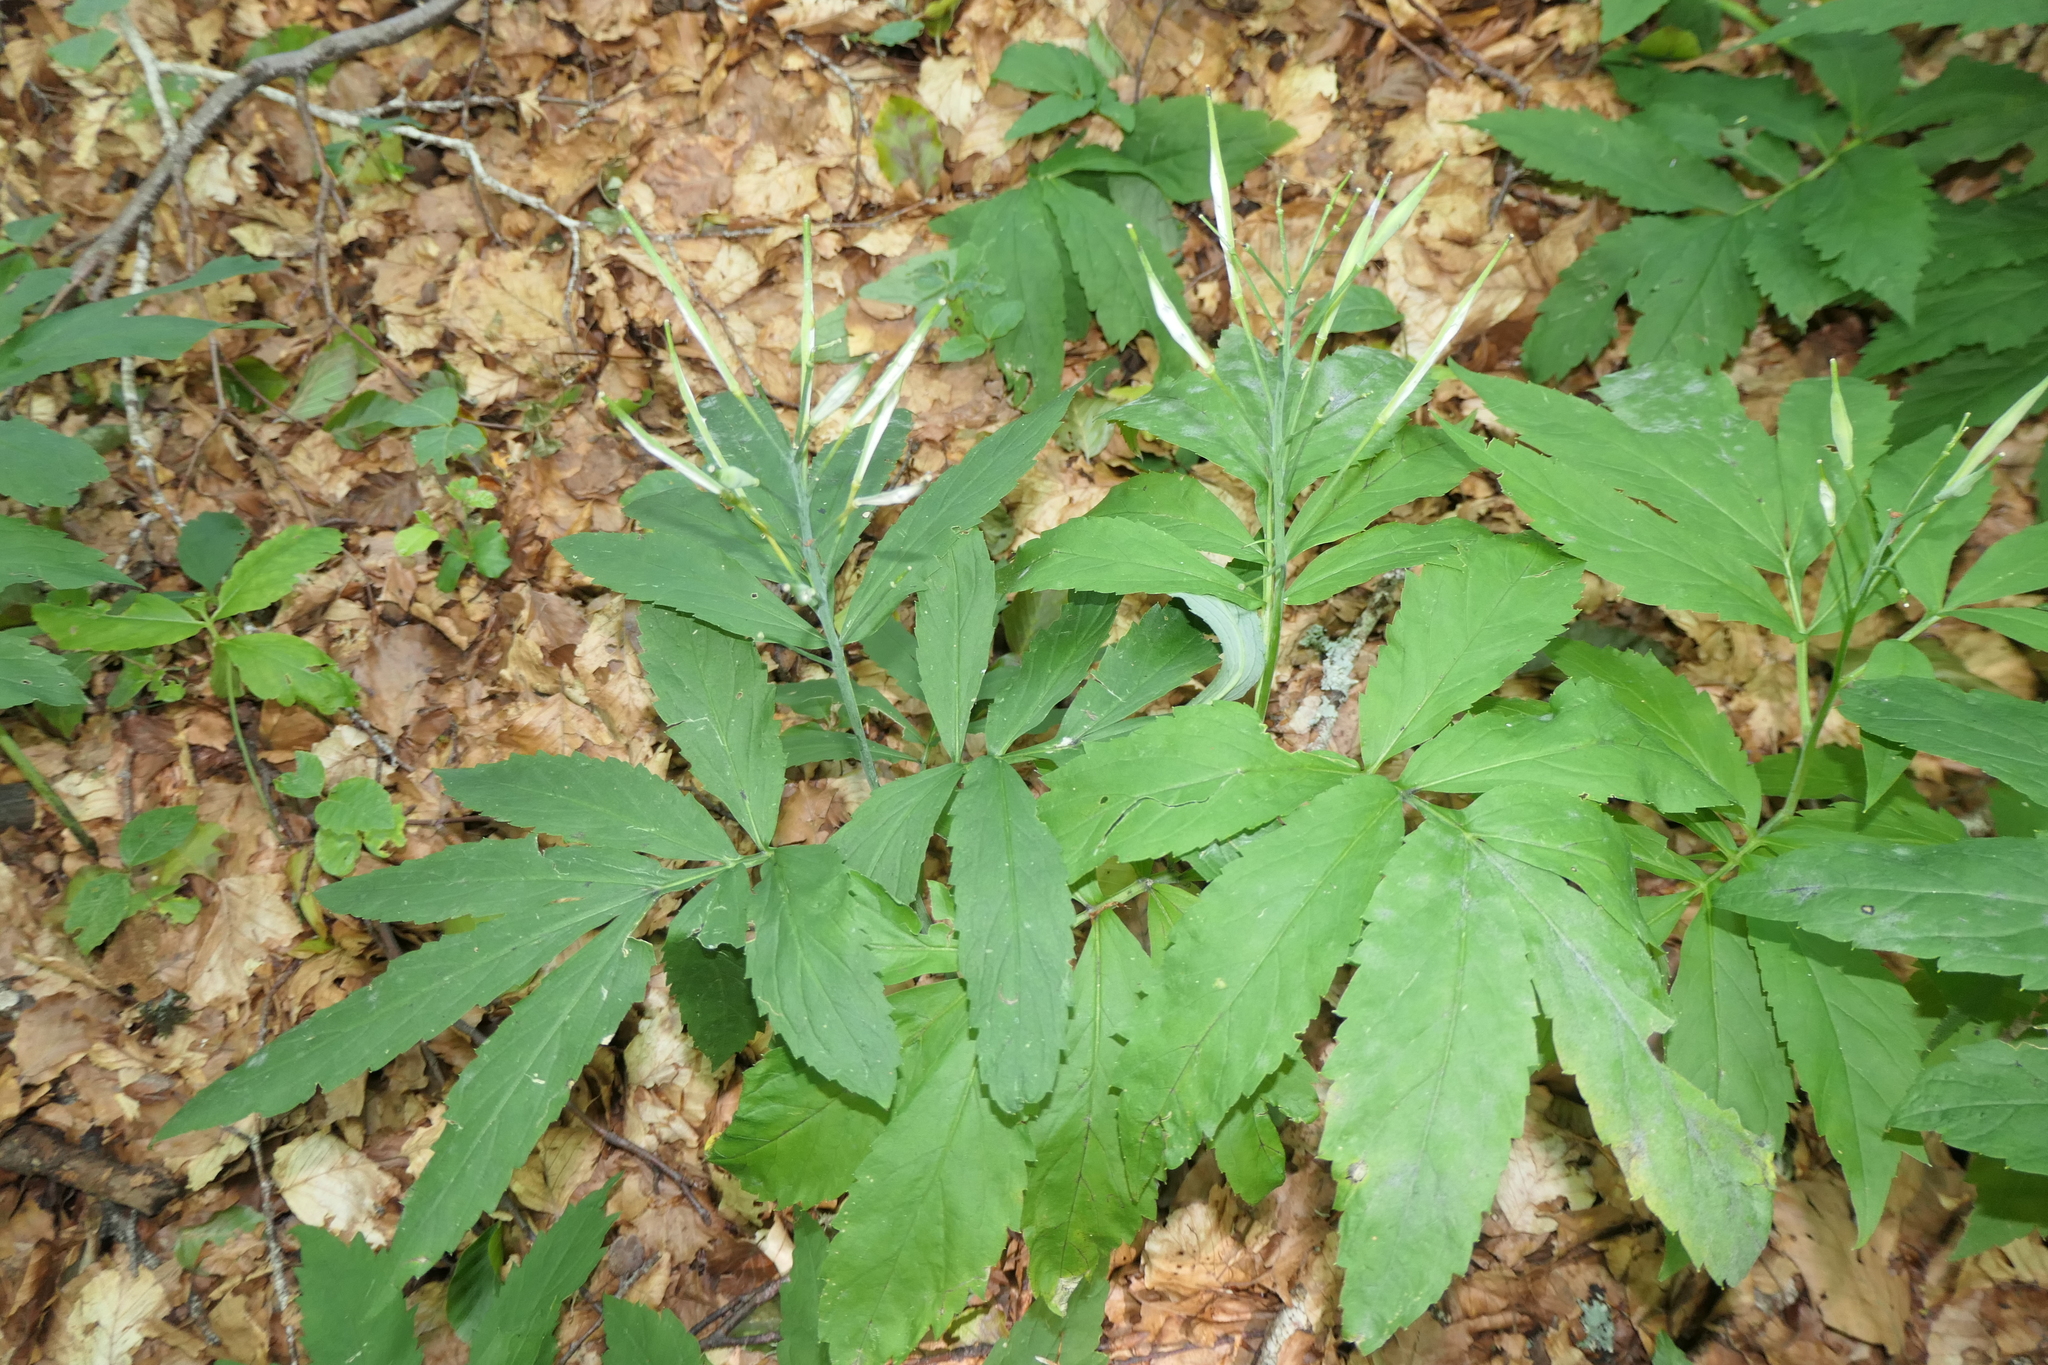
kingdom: Plantae
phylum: Tracheophyta
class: Magnoliopsida
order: Brassicales
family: Brassicaceae
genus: Cardamine
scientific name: Cardamine heptaphylla
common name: Pinnate coralroot
